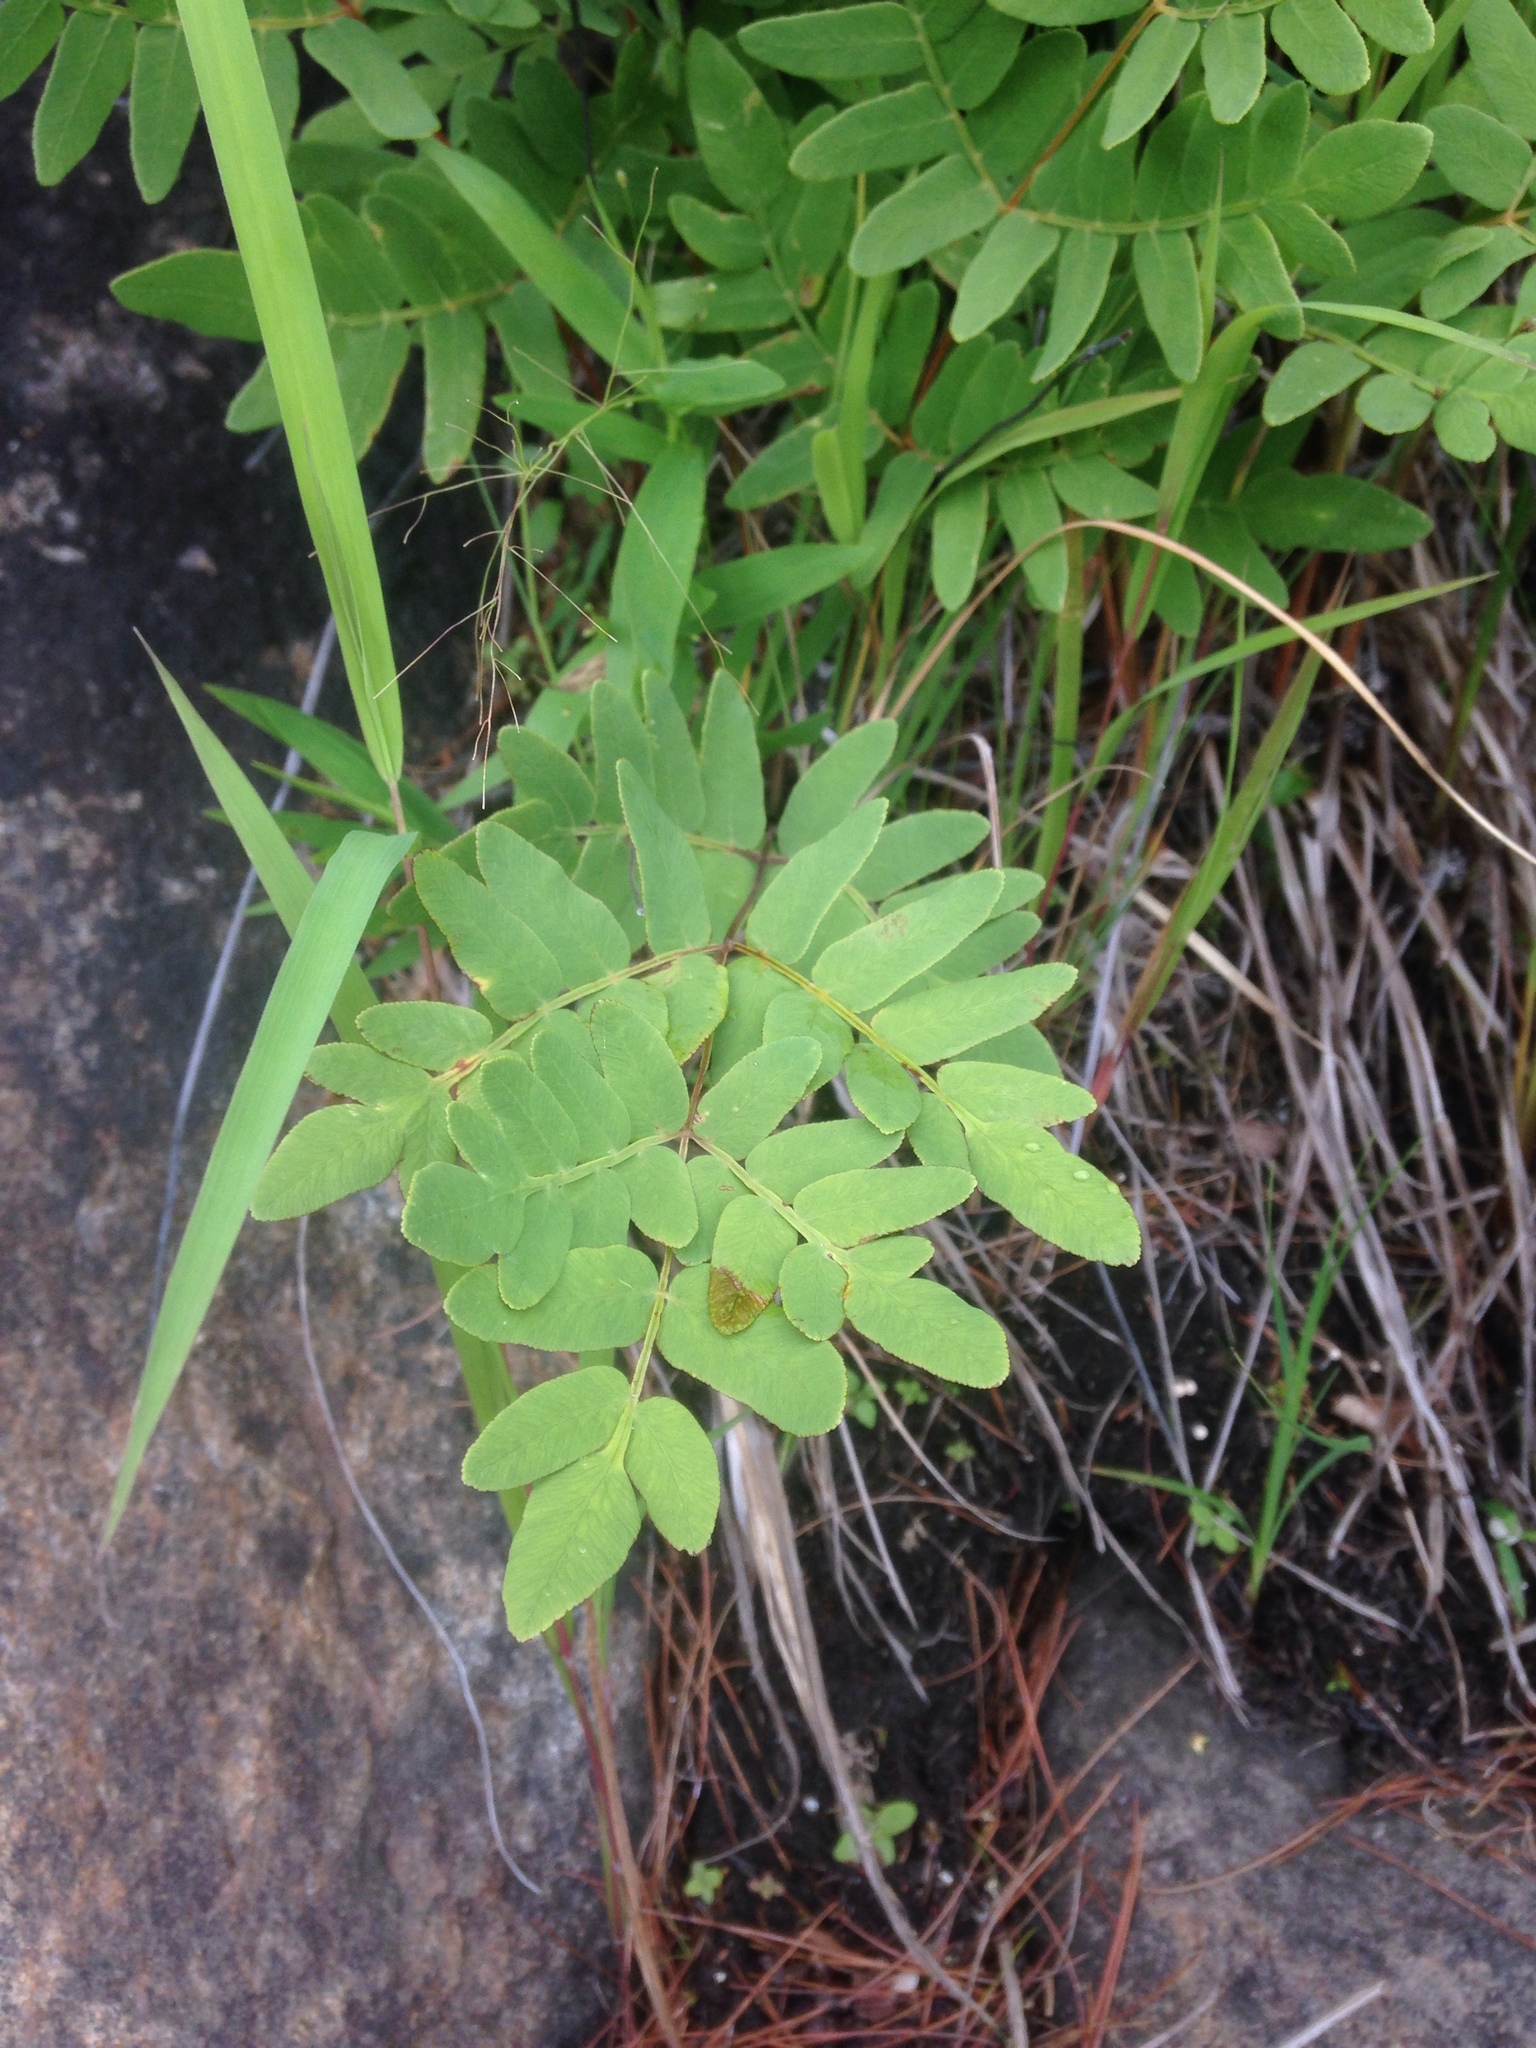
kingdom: Plantae
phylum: Tracheophyta
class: Polypodiopsida
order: Osmundales
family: Osmundaceae
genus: Osmunda
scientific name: Osmunda spectabilis
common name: American royal fern
